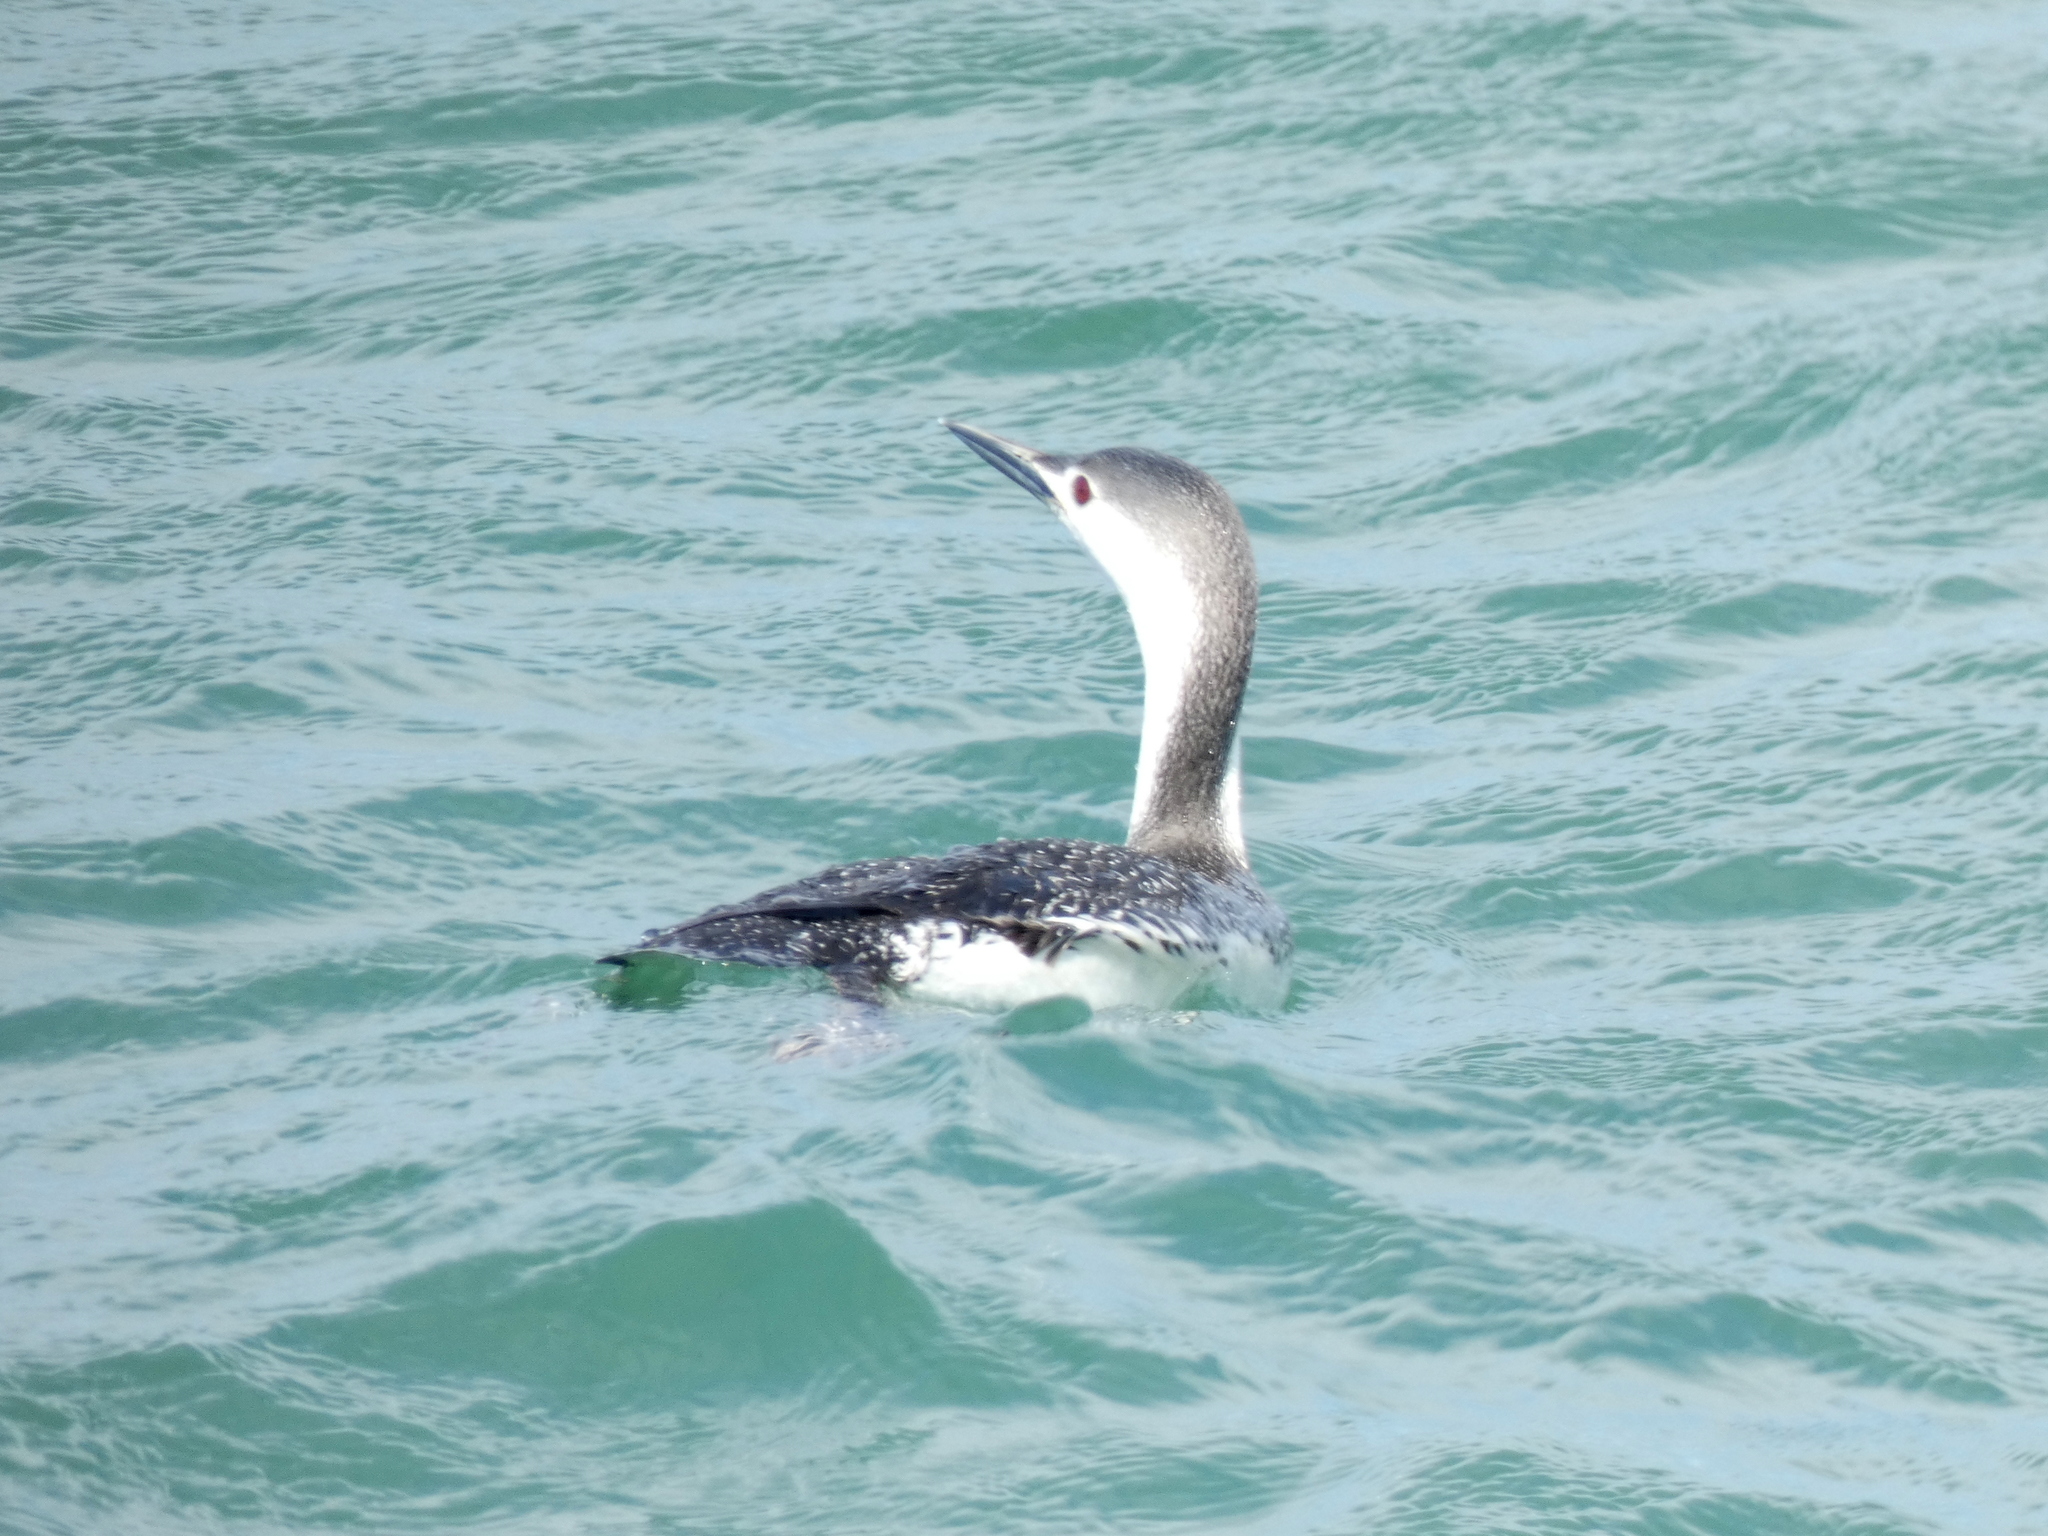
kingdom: Animalia
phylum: Chordata
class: Aves
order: Gaviiformes
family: Gaviidae
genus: Gavia
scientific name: Gavia stellata
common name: Red-throated loon
